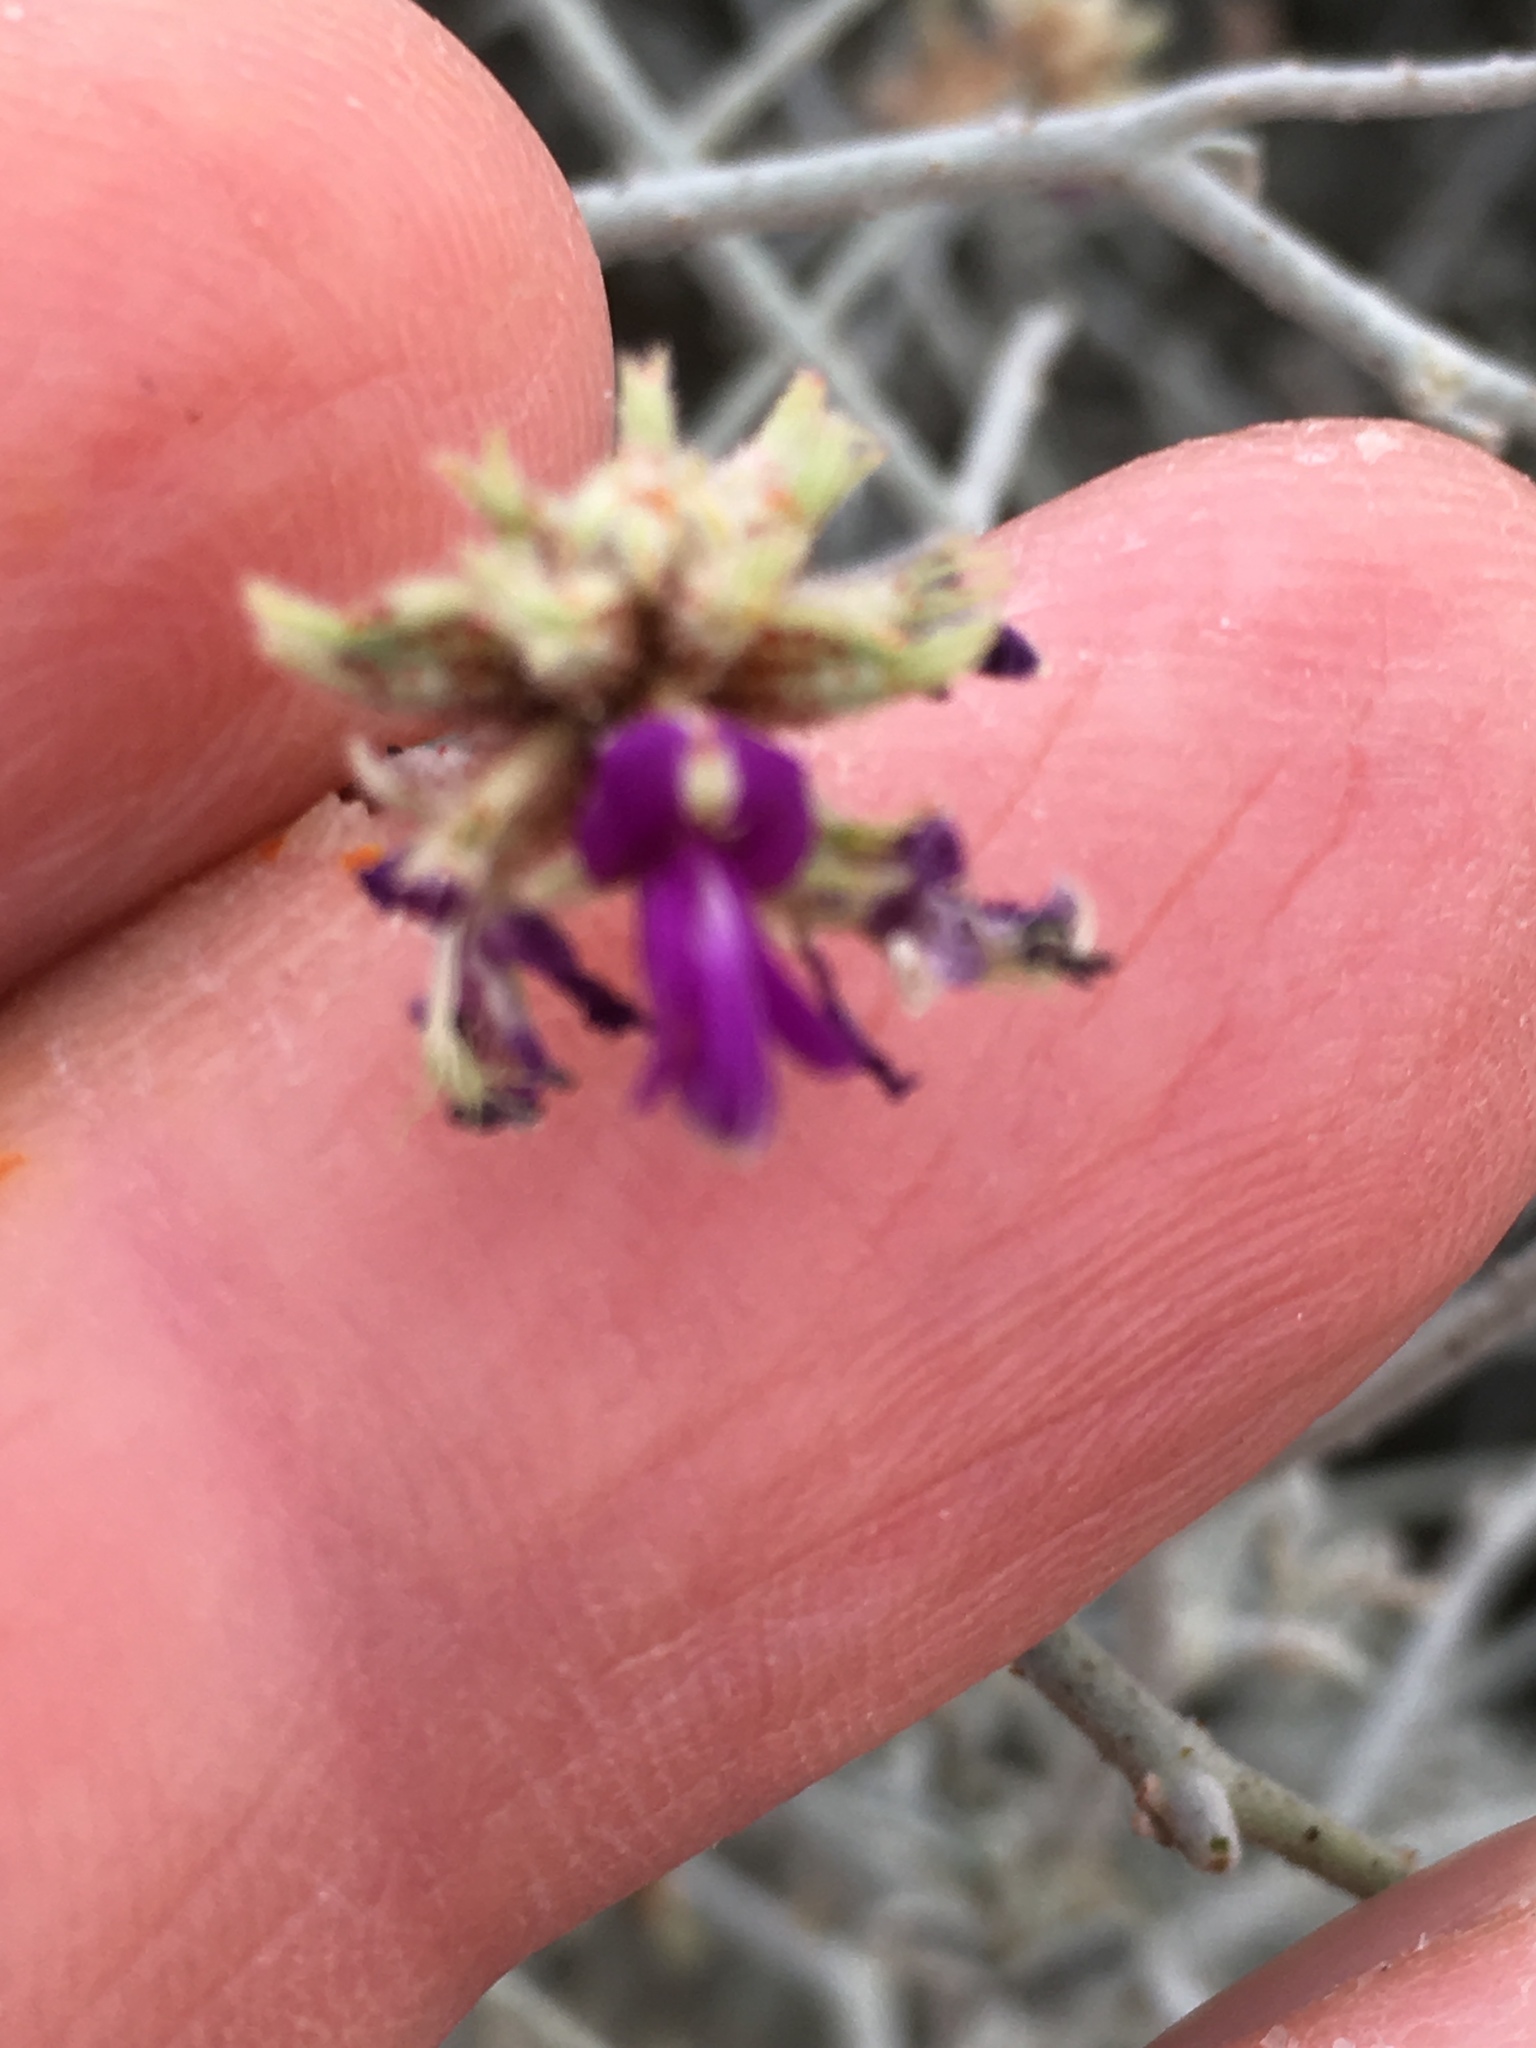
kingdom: Plantae
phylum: Tracheophyta
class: Magnoliopsida
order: Fabales
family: Fabaceae
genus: Psorothamnus
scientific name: Psorothamnus emoryi
